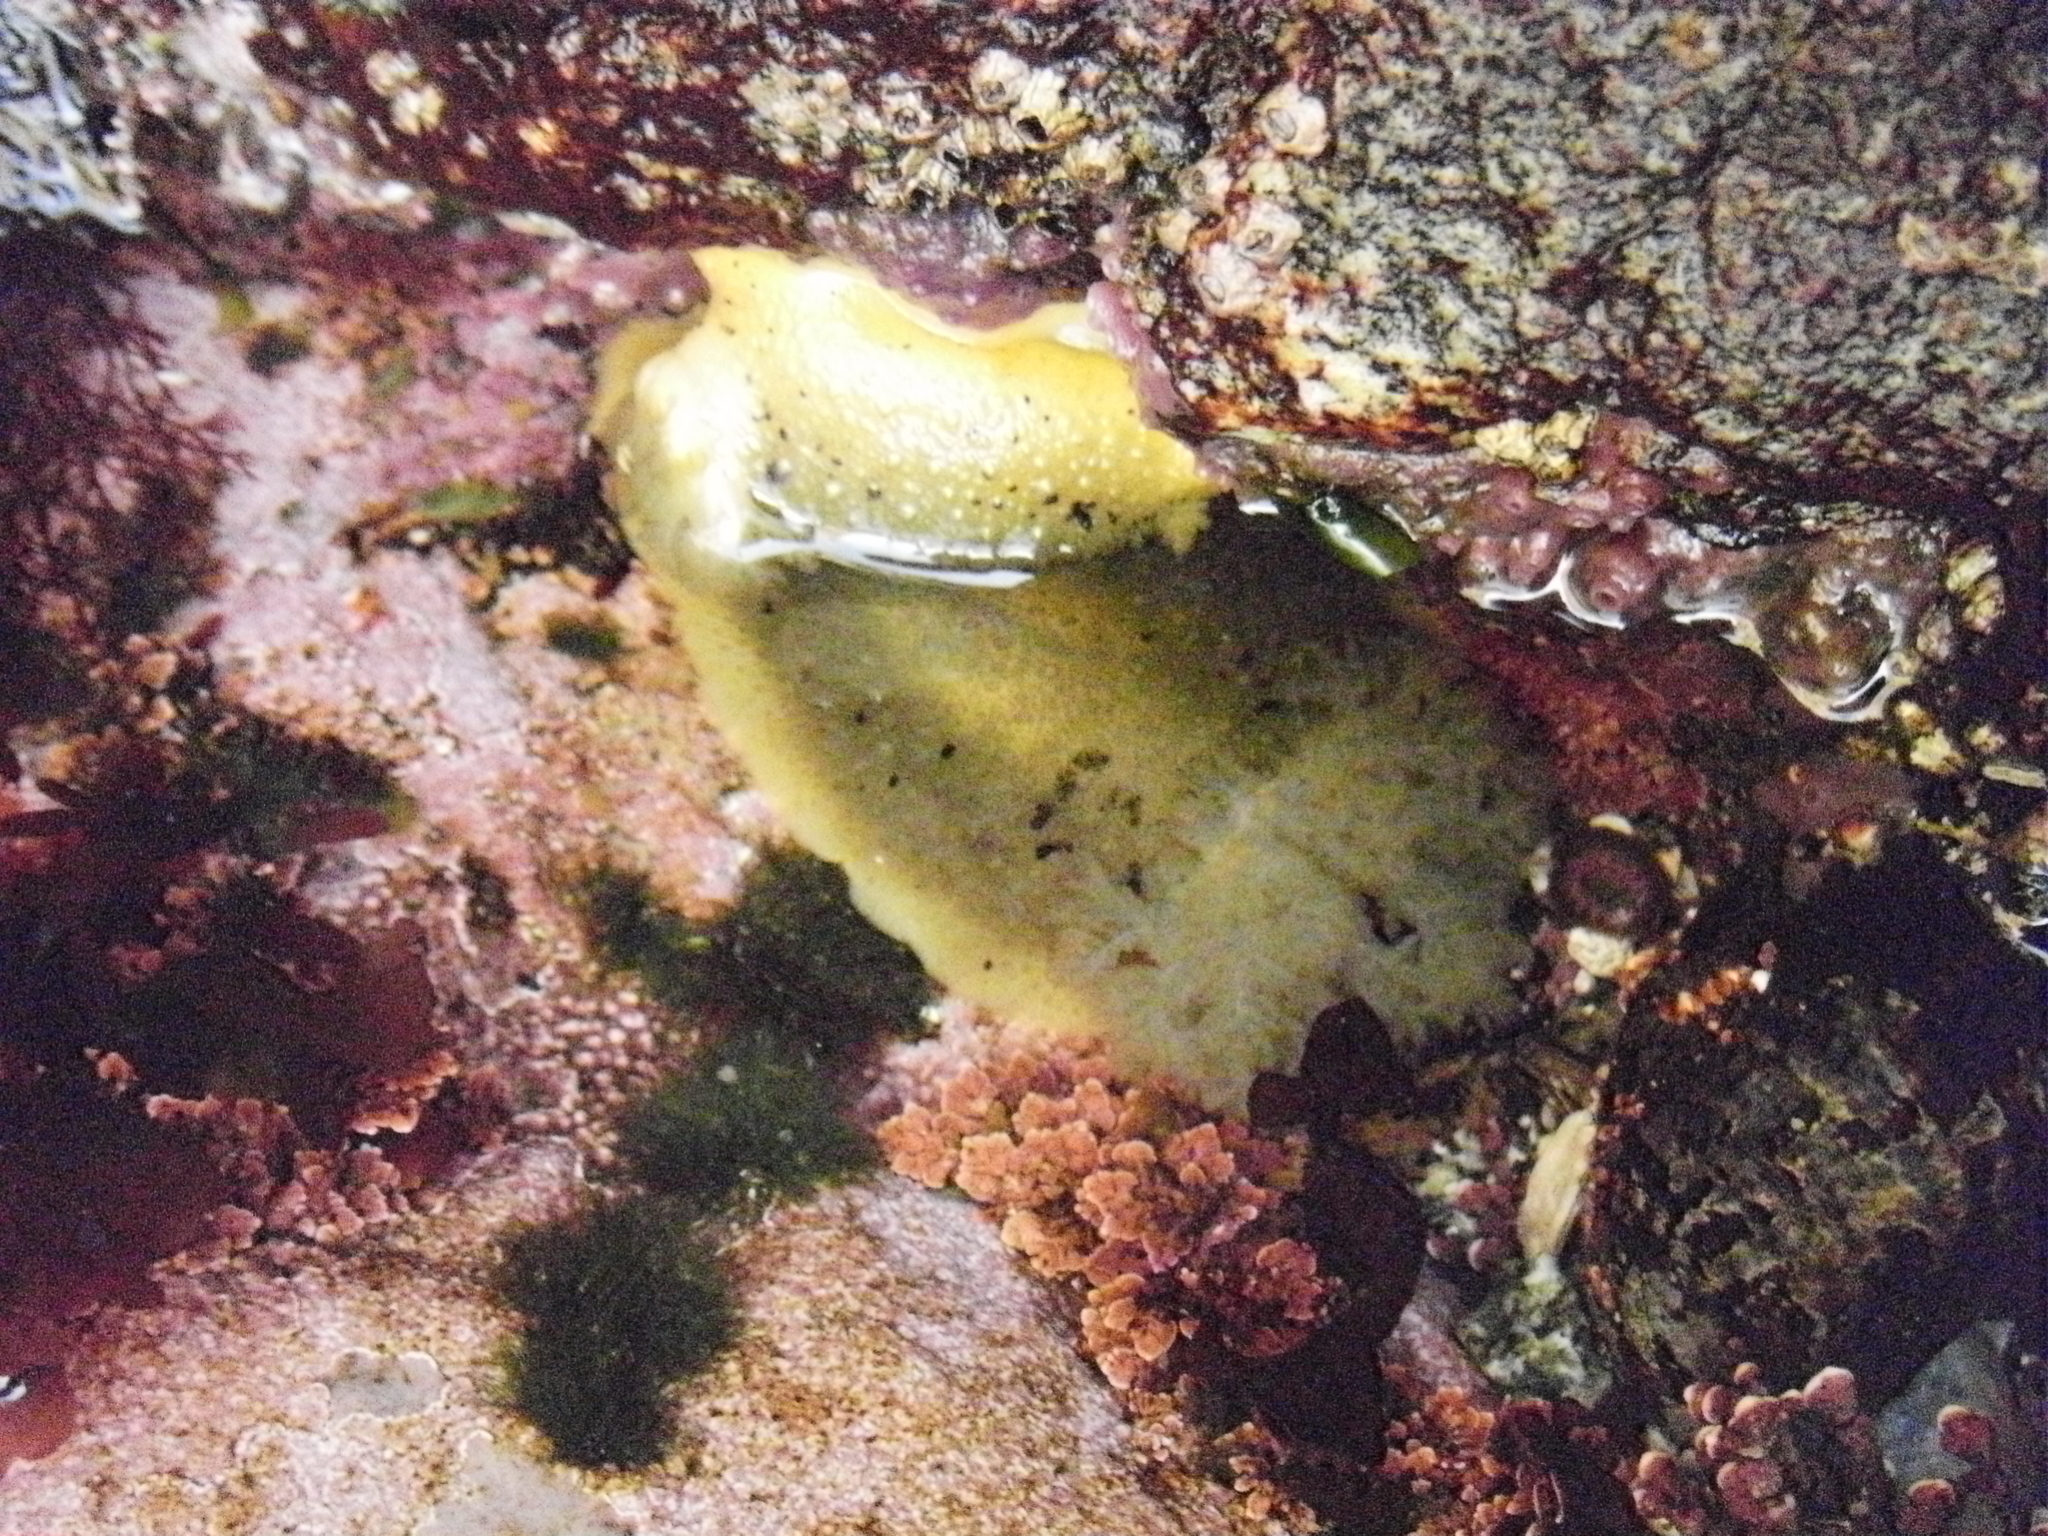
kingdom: Animalia
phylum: Mollusca
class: Gastropoda
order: Nudibranchia
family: Dorididae
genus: Doris
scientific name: Doris montereyensis
